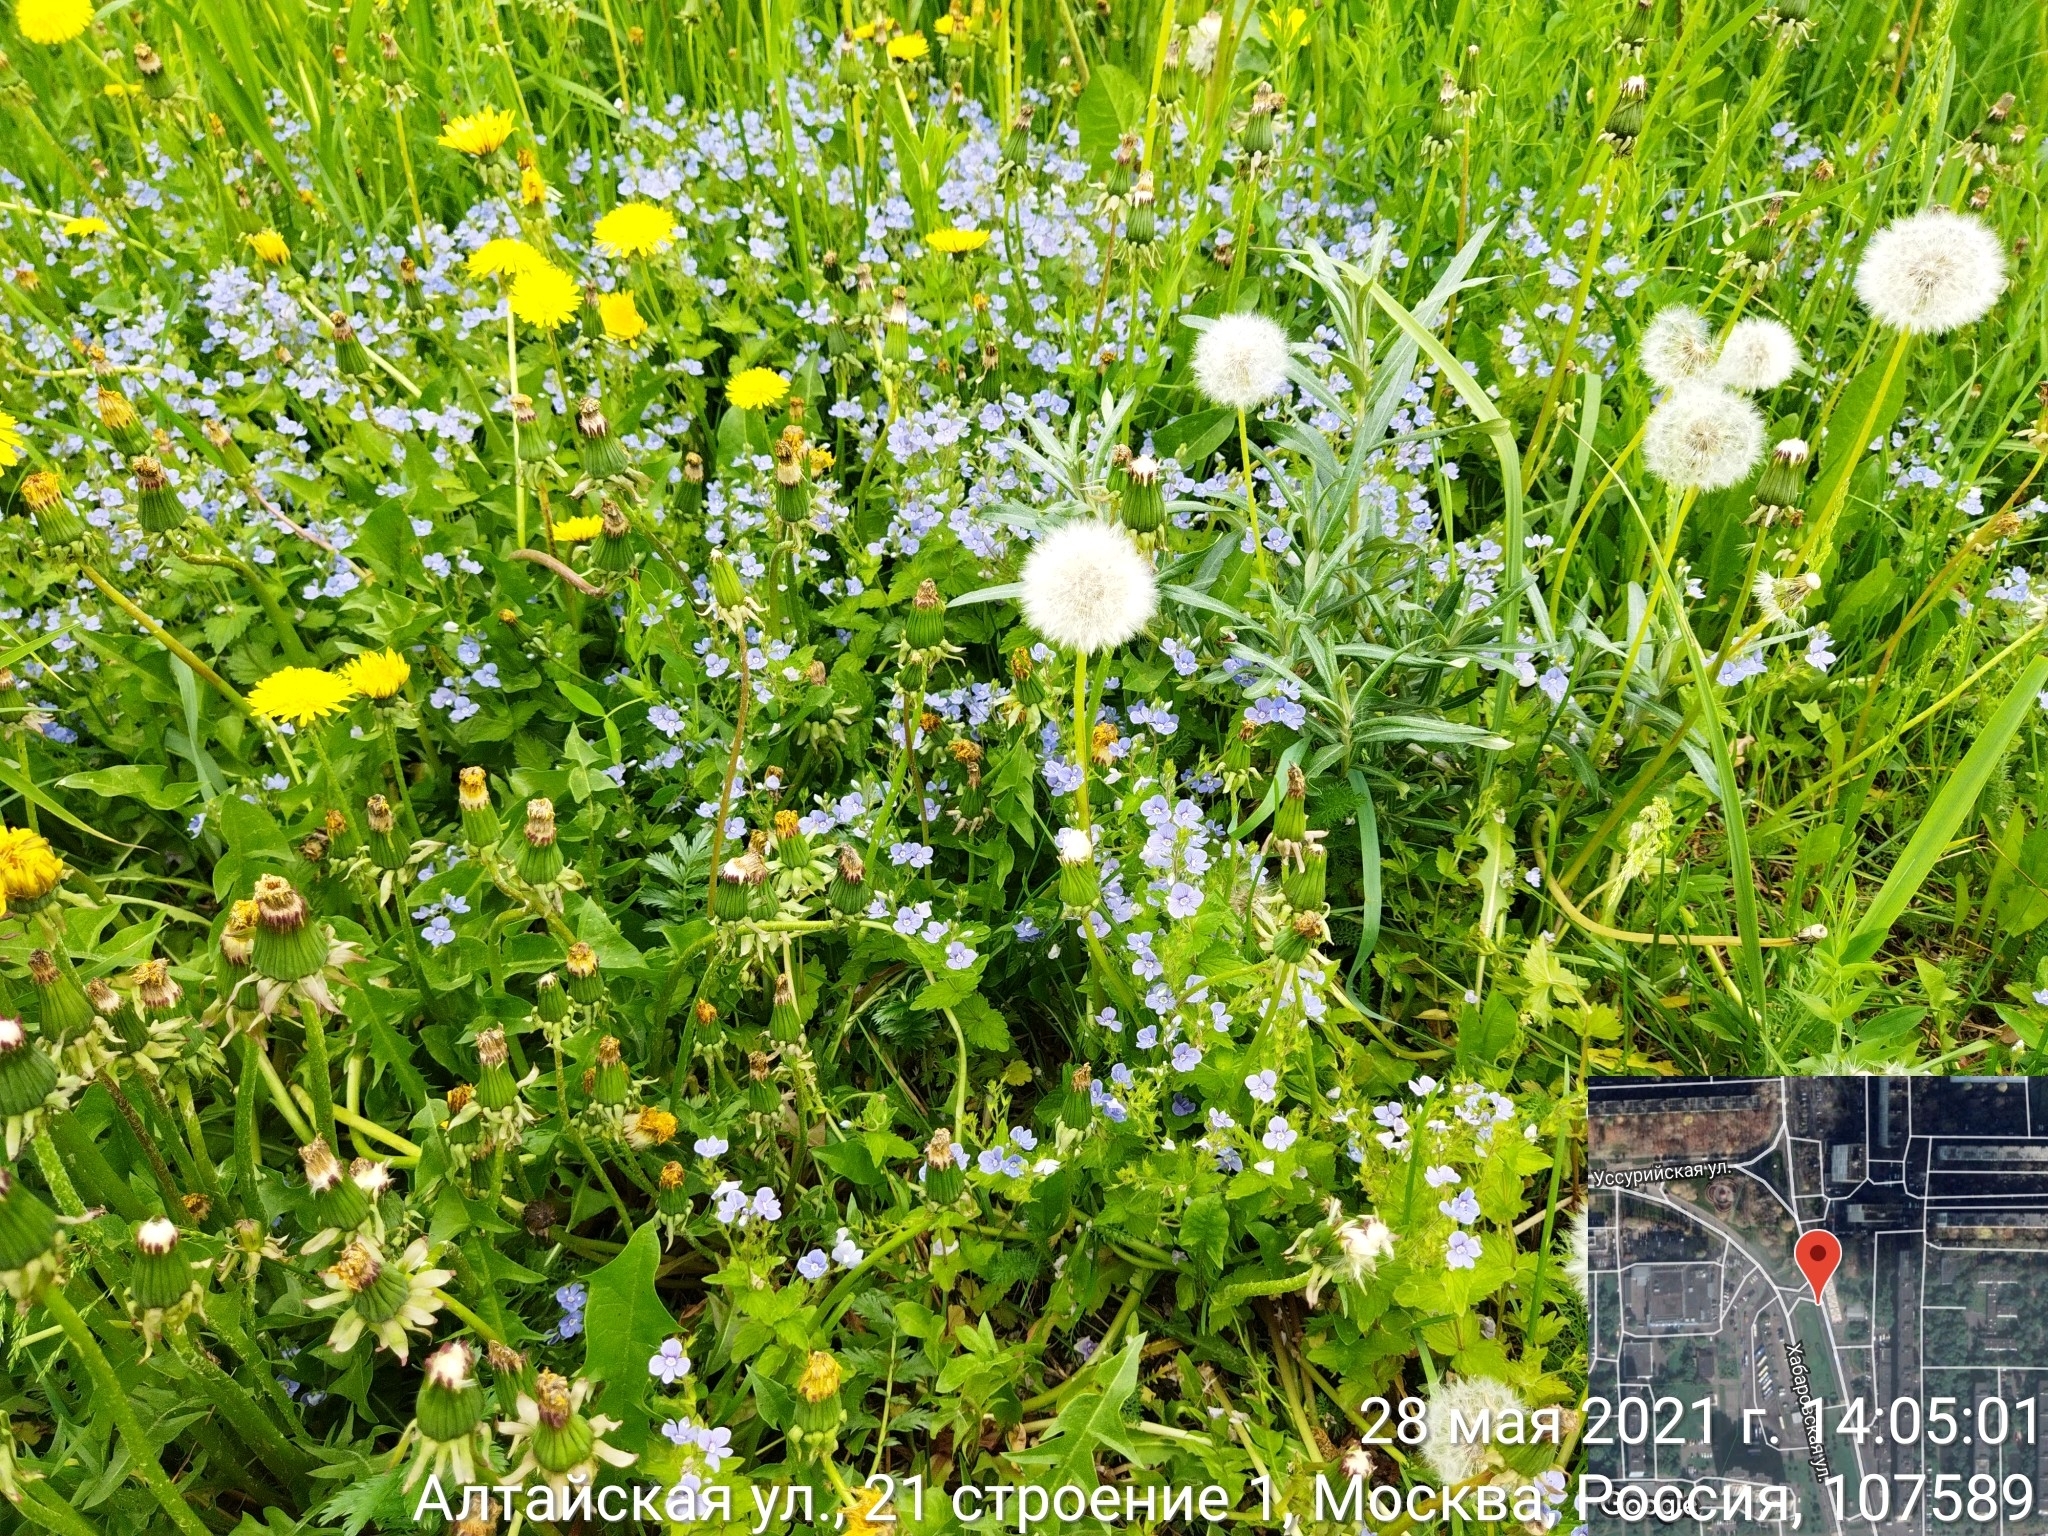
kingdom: Plantae
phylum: Tracheophyta
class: Magnoliopsida
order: Lamiales
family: Plantaginaceae
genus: Veronica
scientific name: Veronica chamaedrys
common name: Germander speedwell
